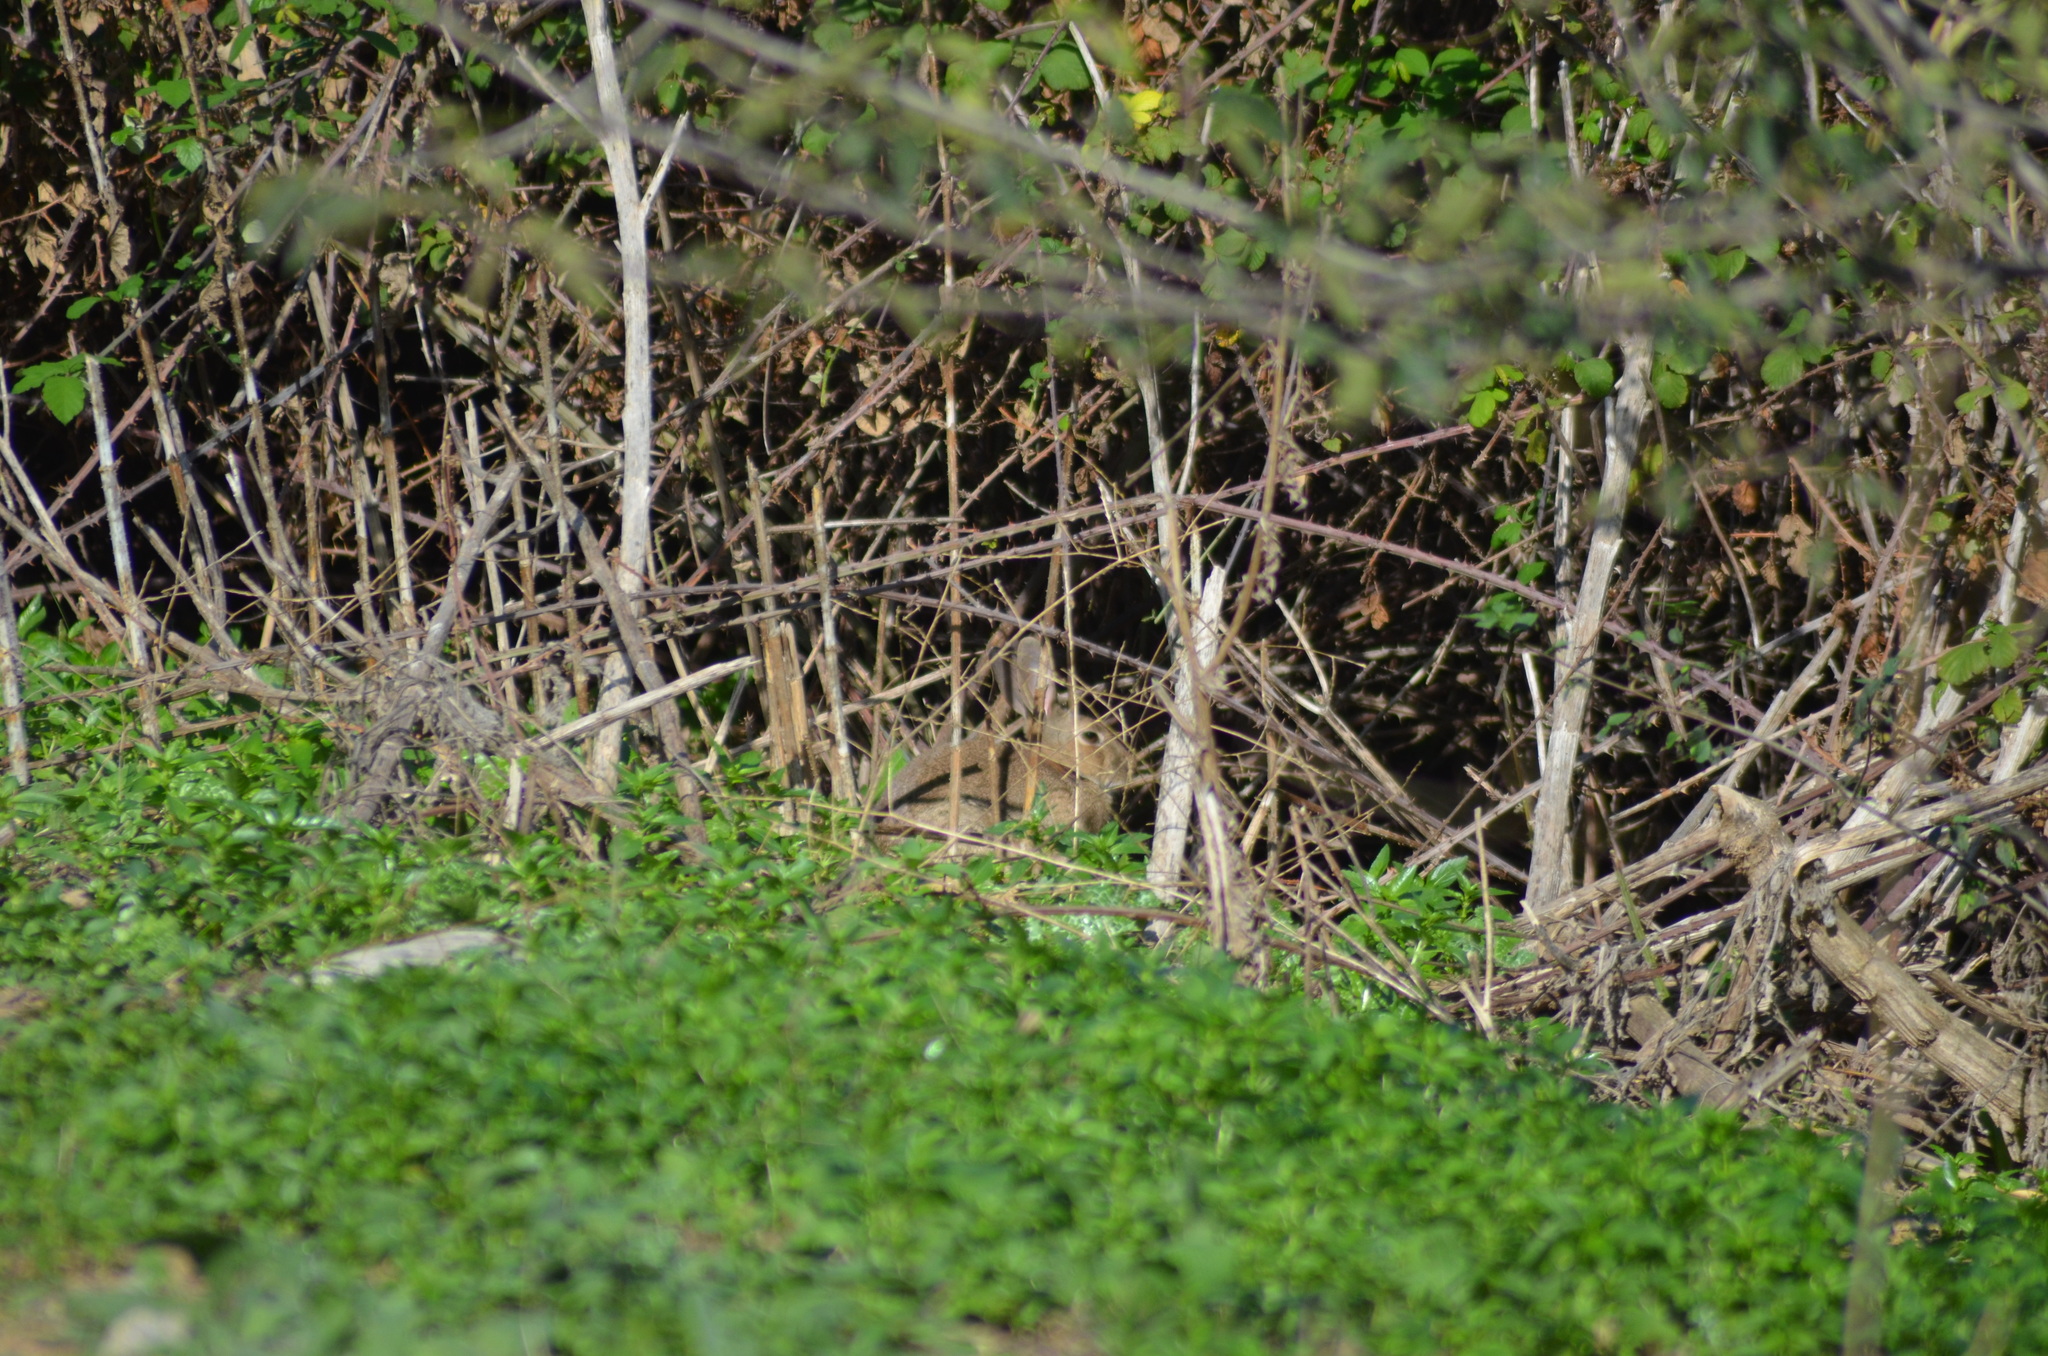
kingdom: Animalia
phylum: Chordata
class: Mammalia
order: Lagomorpha
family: Leporidae
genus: Oryctolagus
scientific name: Oryctolagus cuniculus
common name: European rabbit
